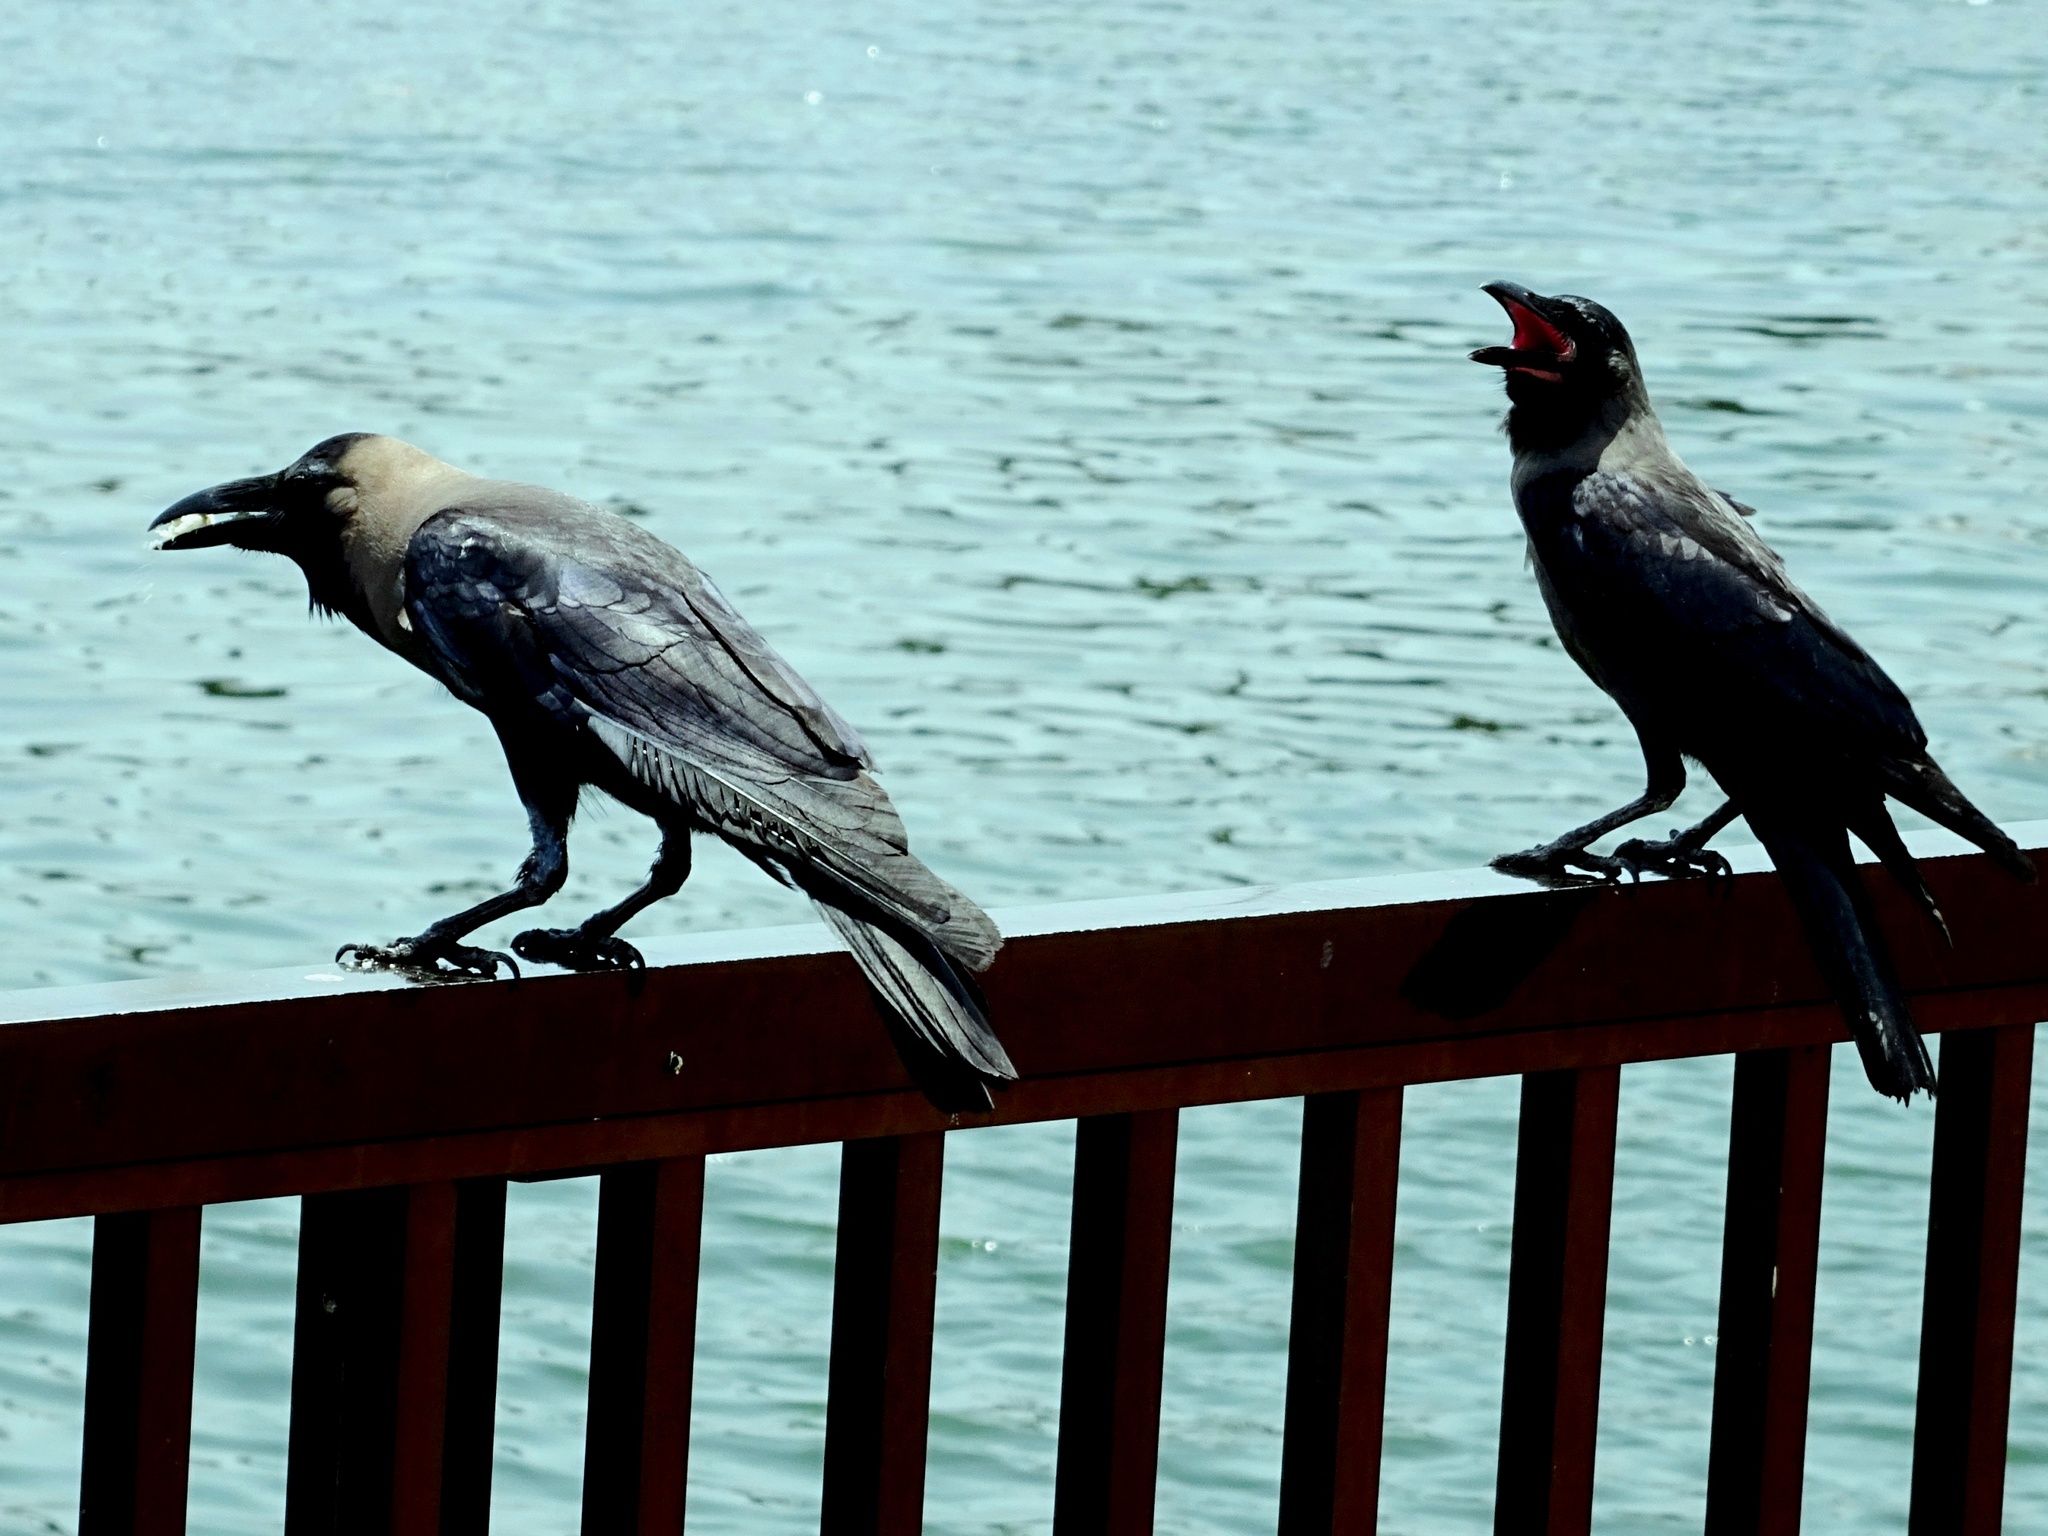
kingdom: Animalia
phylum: Chordata
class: Aves
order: Passeriformes
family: Corvidae
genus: Corvus
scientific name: Corvus splendens
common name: House crow
